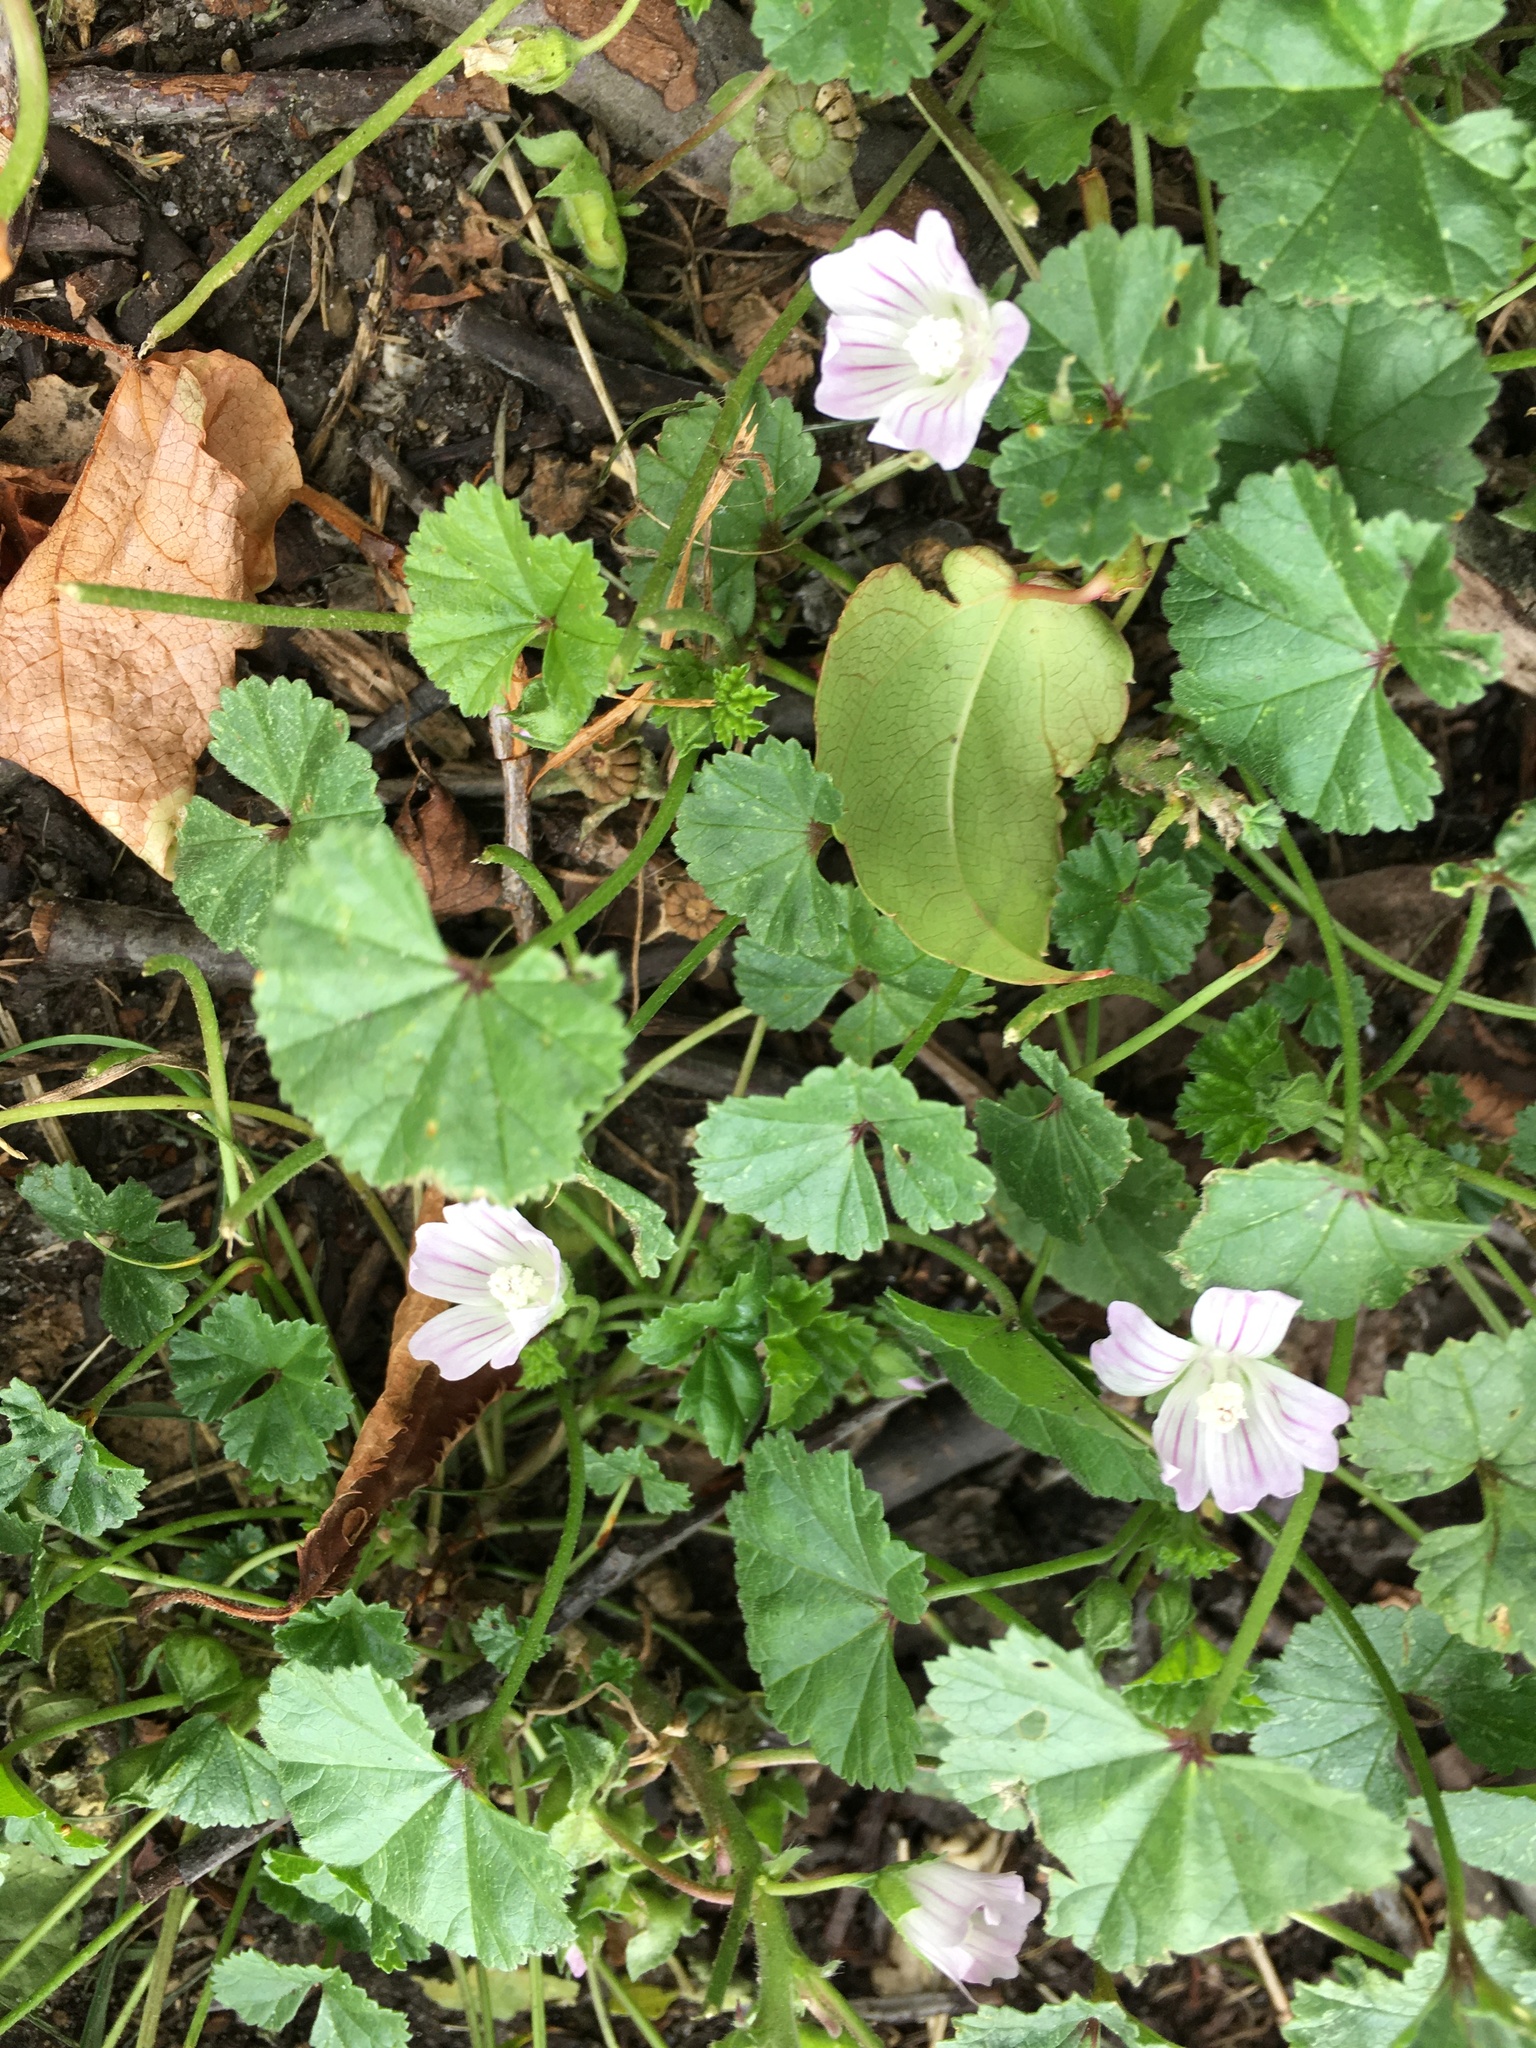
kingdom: Plantae
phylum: Tracheophyta
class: Magnoliopsida
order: Malvales
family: Malvaceae
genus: Malva
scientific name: Malva neglecta
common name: Common mallow
